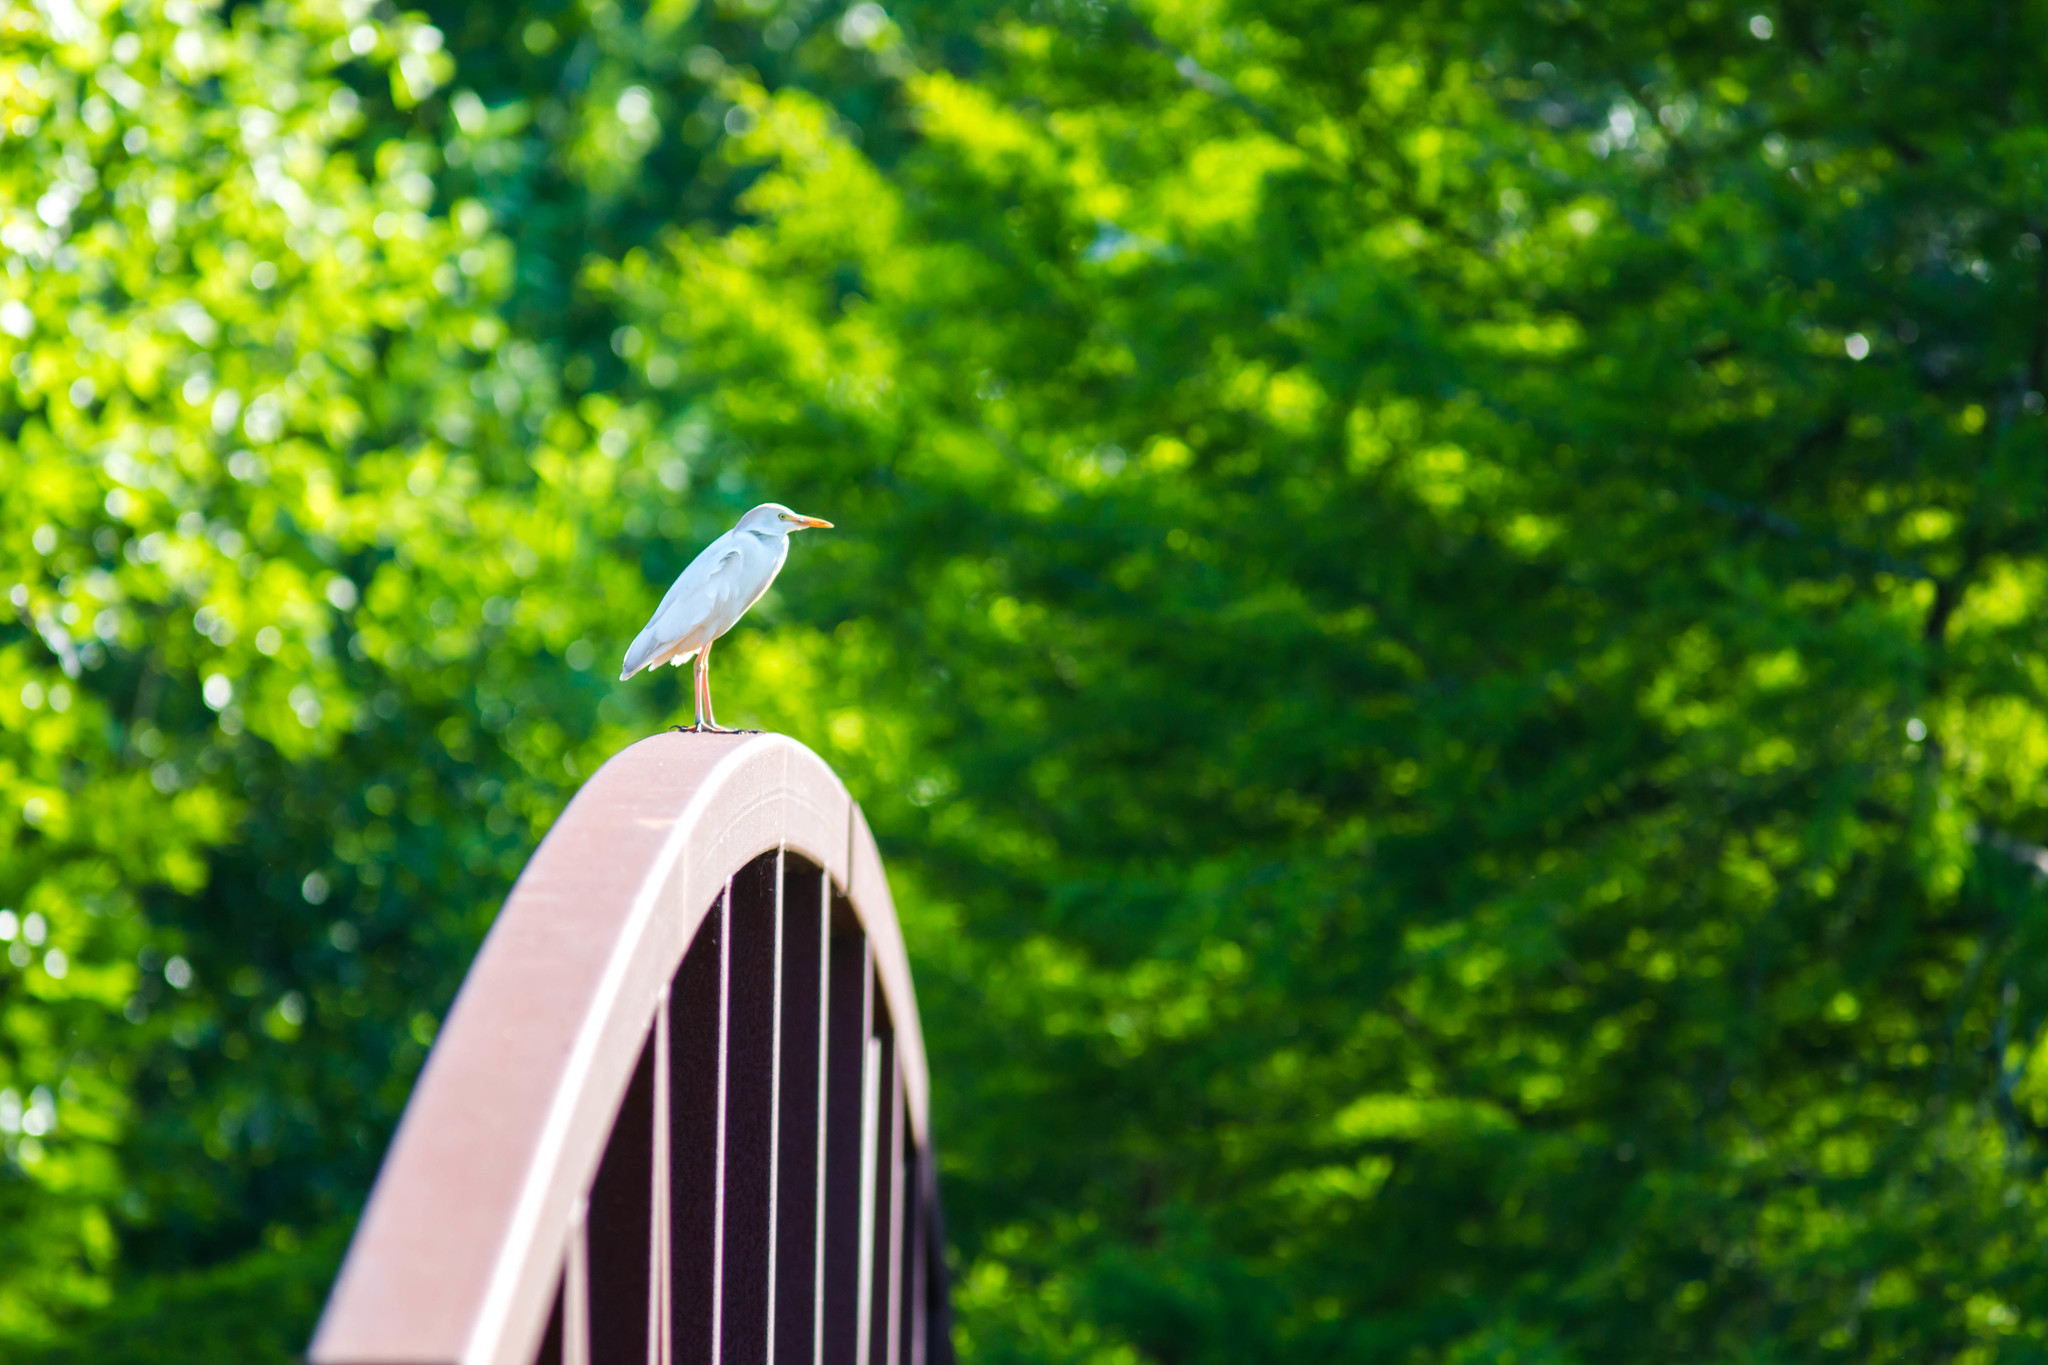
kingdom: Animalia
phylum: Chordata
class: Aves
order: Pelecaniformes
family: Ardeidae
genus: Bubulcus
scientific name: Bubulcus ibis
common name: Cattle egret
